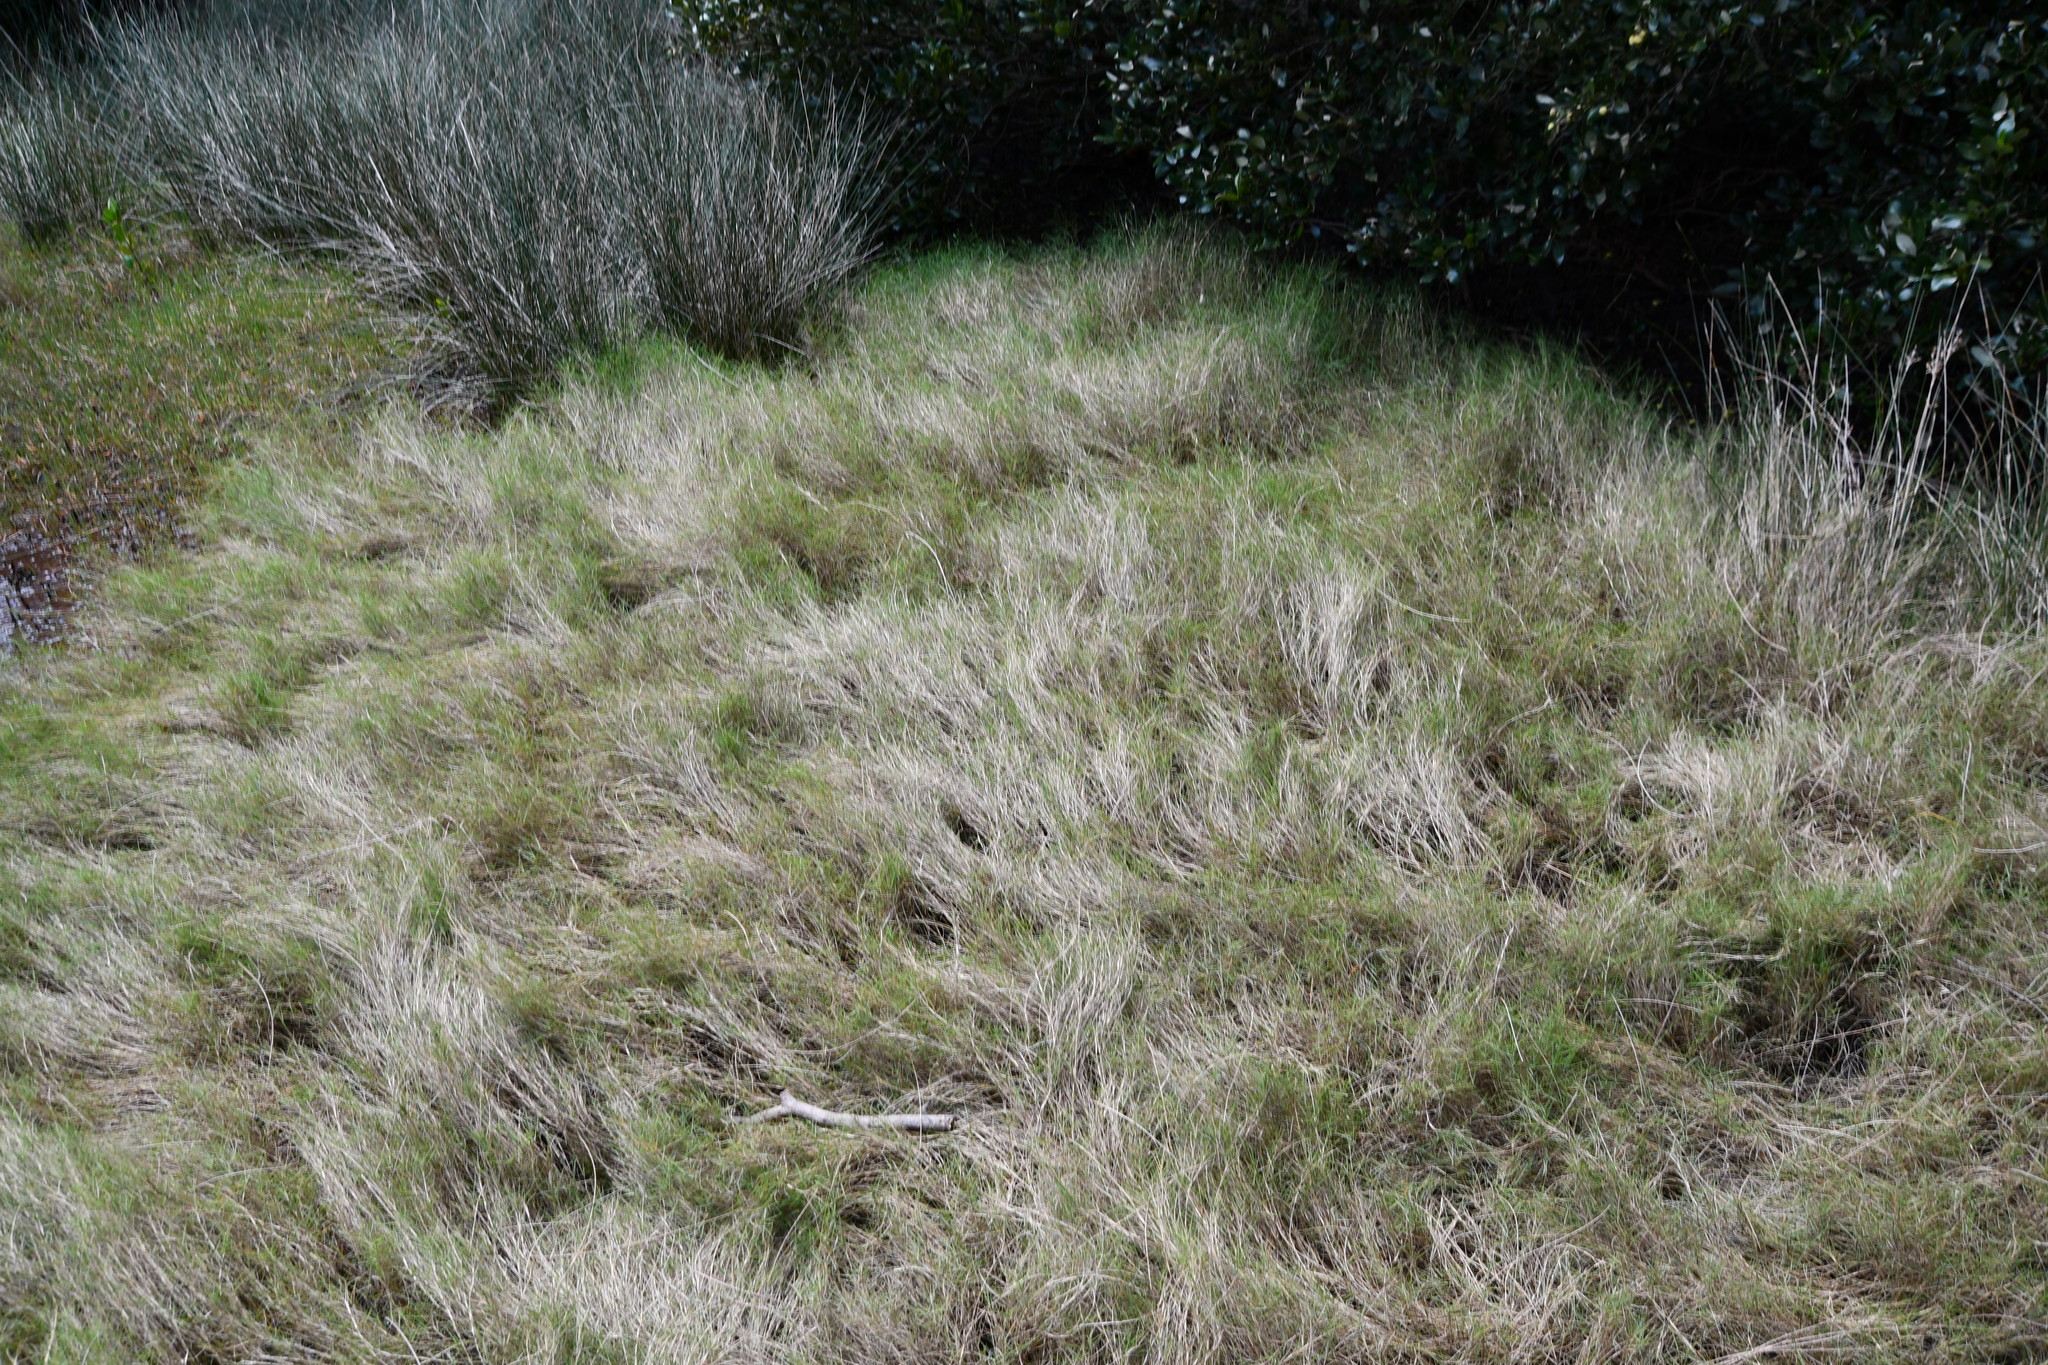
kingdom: Plantae
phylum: Tracheophyta
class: Liliopsida
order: Poales
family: Poaceae
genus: Sporobolus
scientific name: Sporobolus virginicus
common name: Beach dropseed
